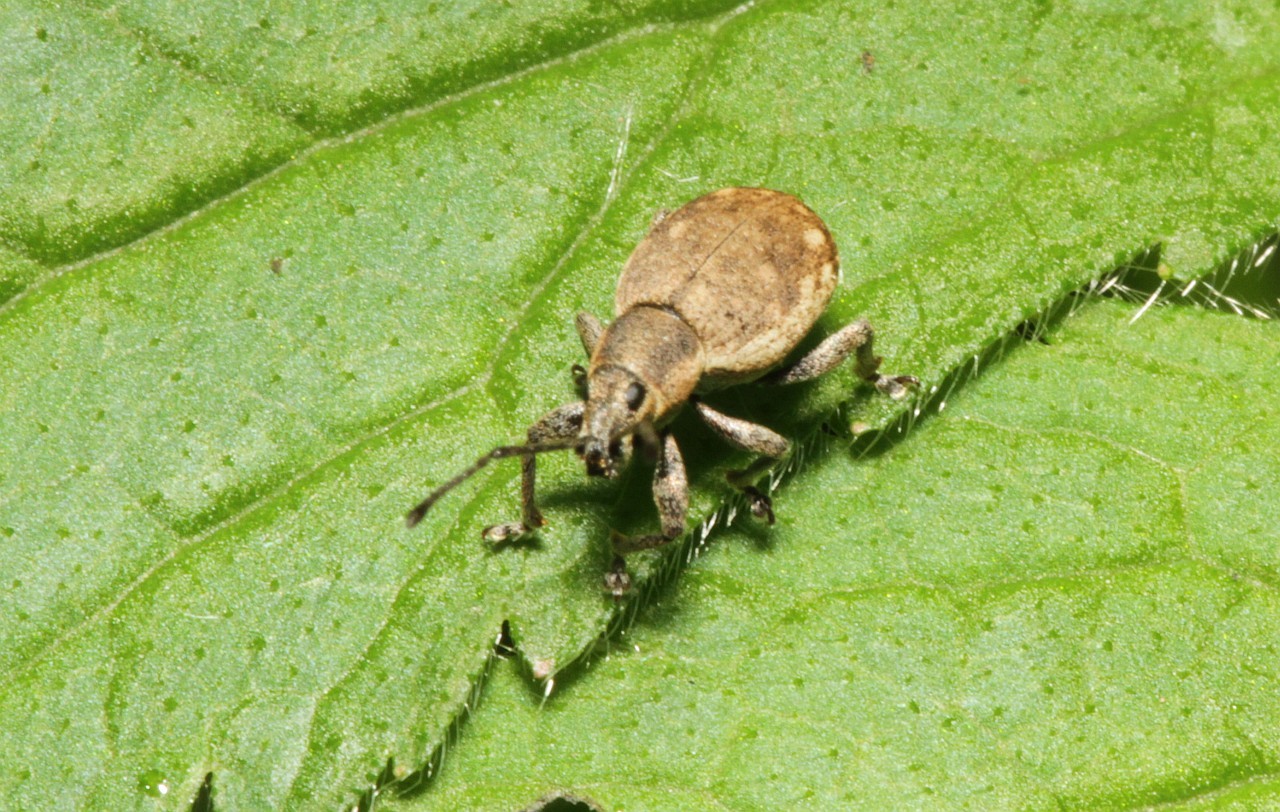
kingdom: Animalia
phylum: Arthropoda
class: Insecta
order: Coleoptera
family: Curculionidae
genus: Peritelus
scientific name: Peritelus sphaeroides
